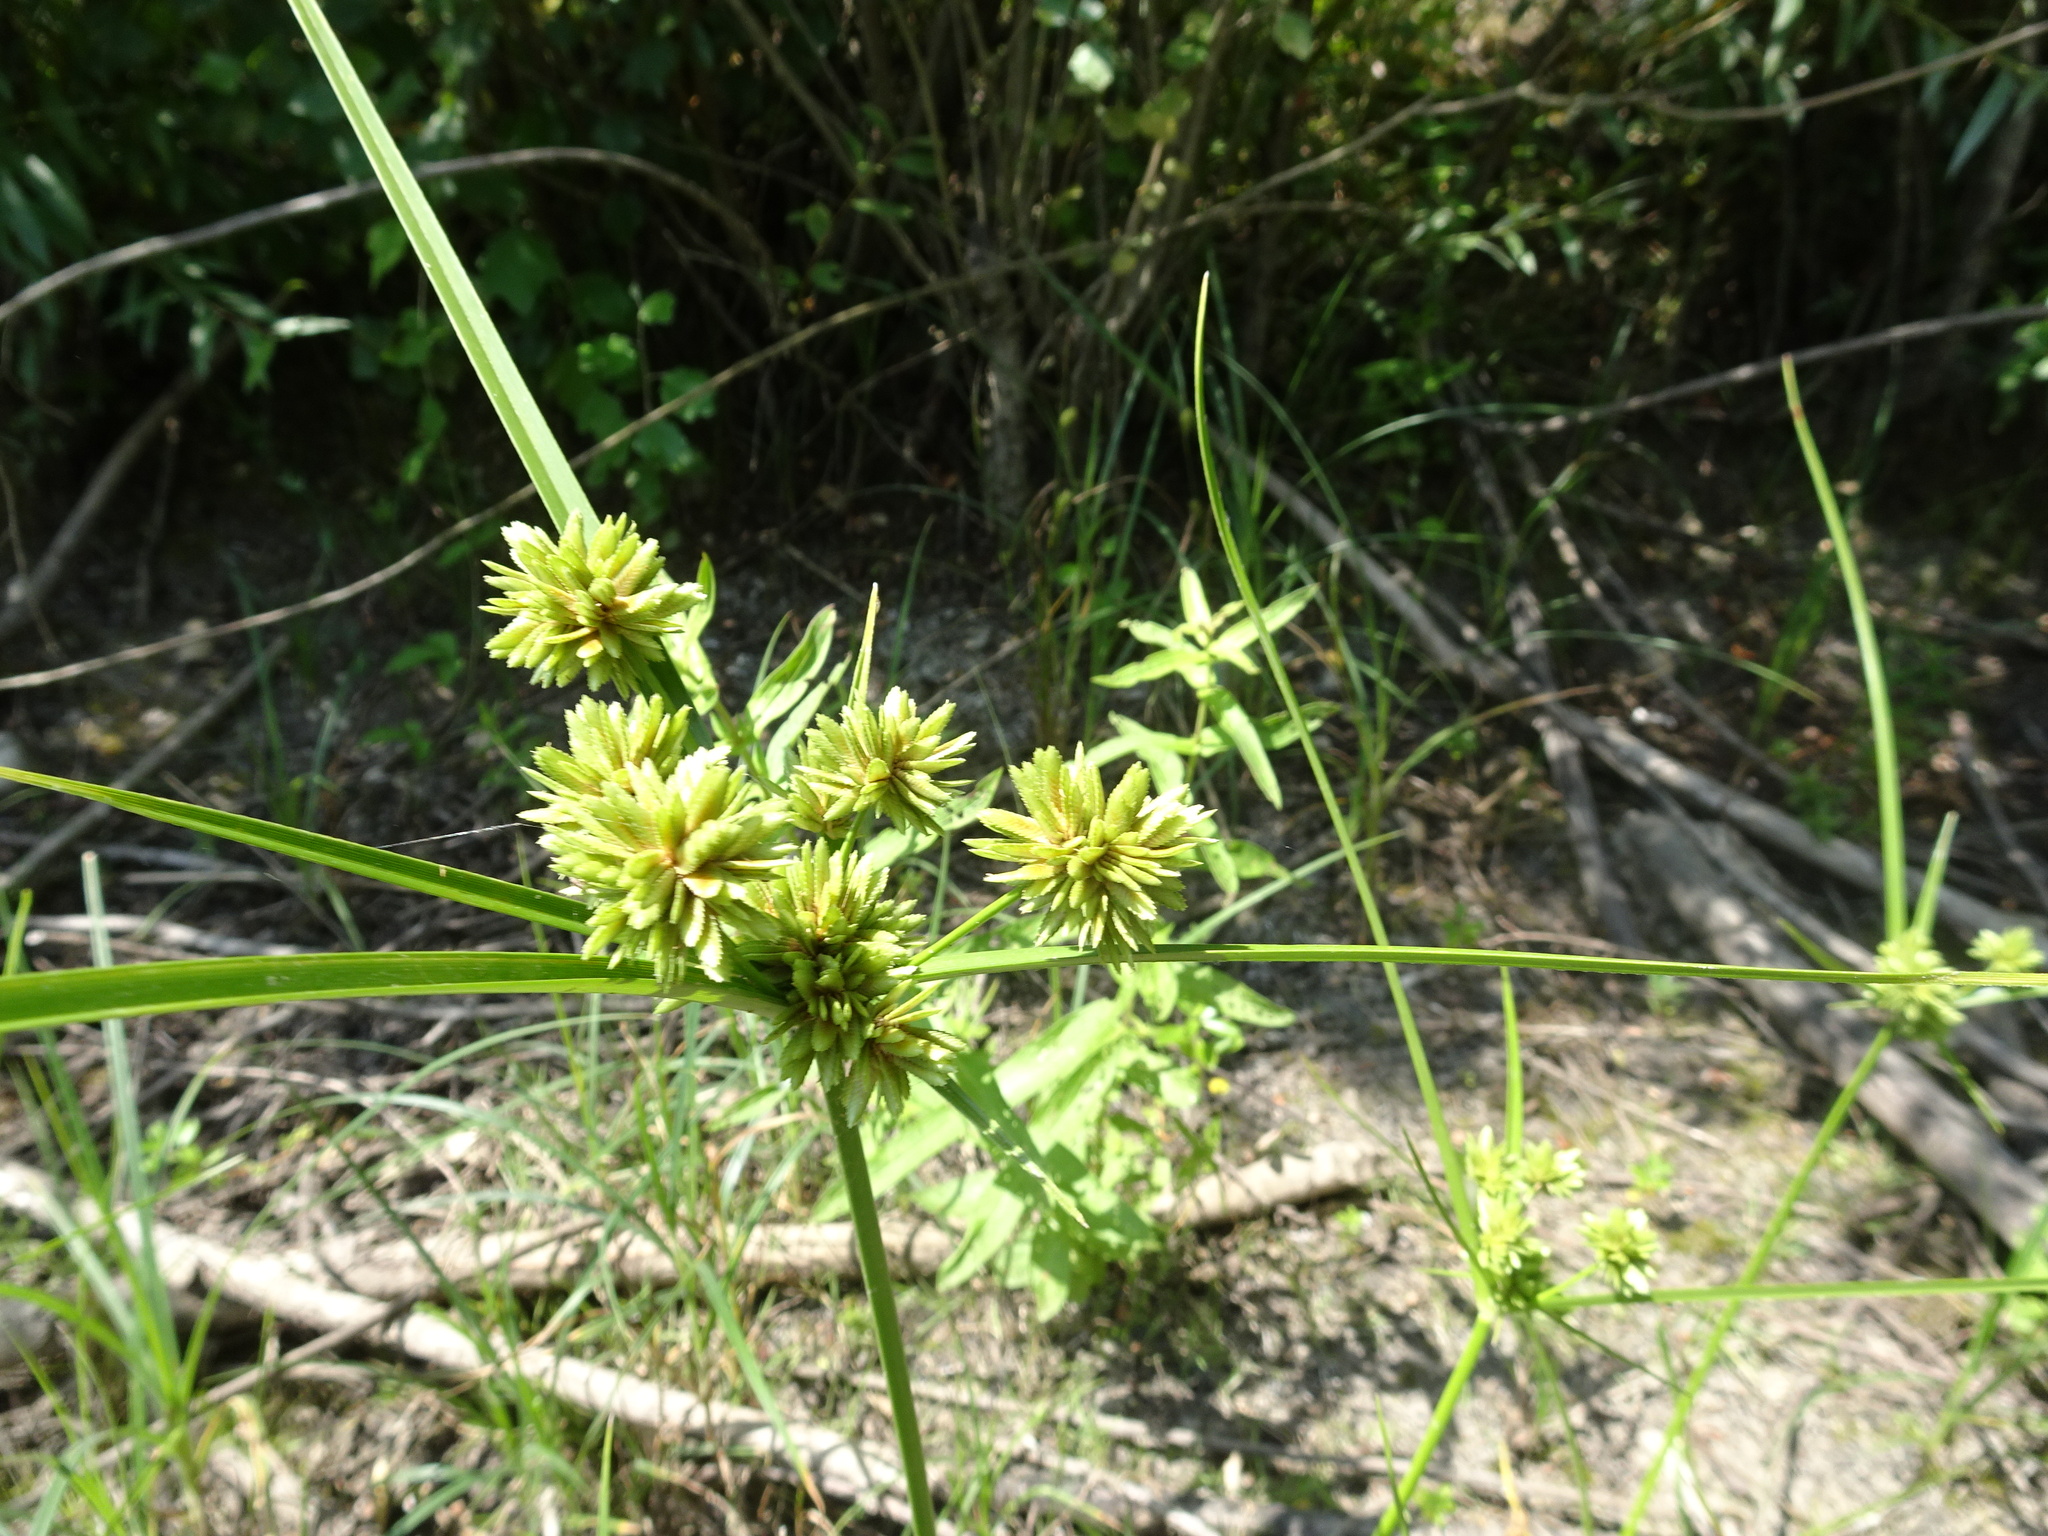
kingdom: Plantae
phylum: Tracheophyta
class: Liliopsida
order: Poales
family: Cyperaceae
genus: Cyperus
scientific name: Cyperus eragrostis
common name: Tall flatsedge
